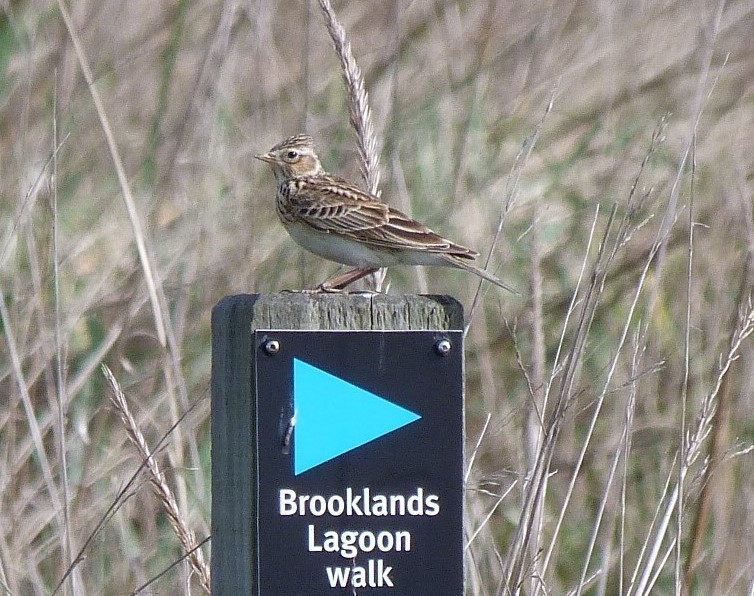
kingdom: Animalia
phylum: Chordata
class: Aves
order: Passeriformes
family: Alaudidae
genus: Alauda
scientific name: Alauda arvensis
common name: Eurasian skylark
